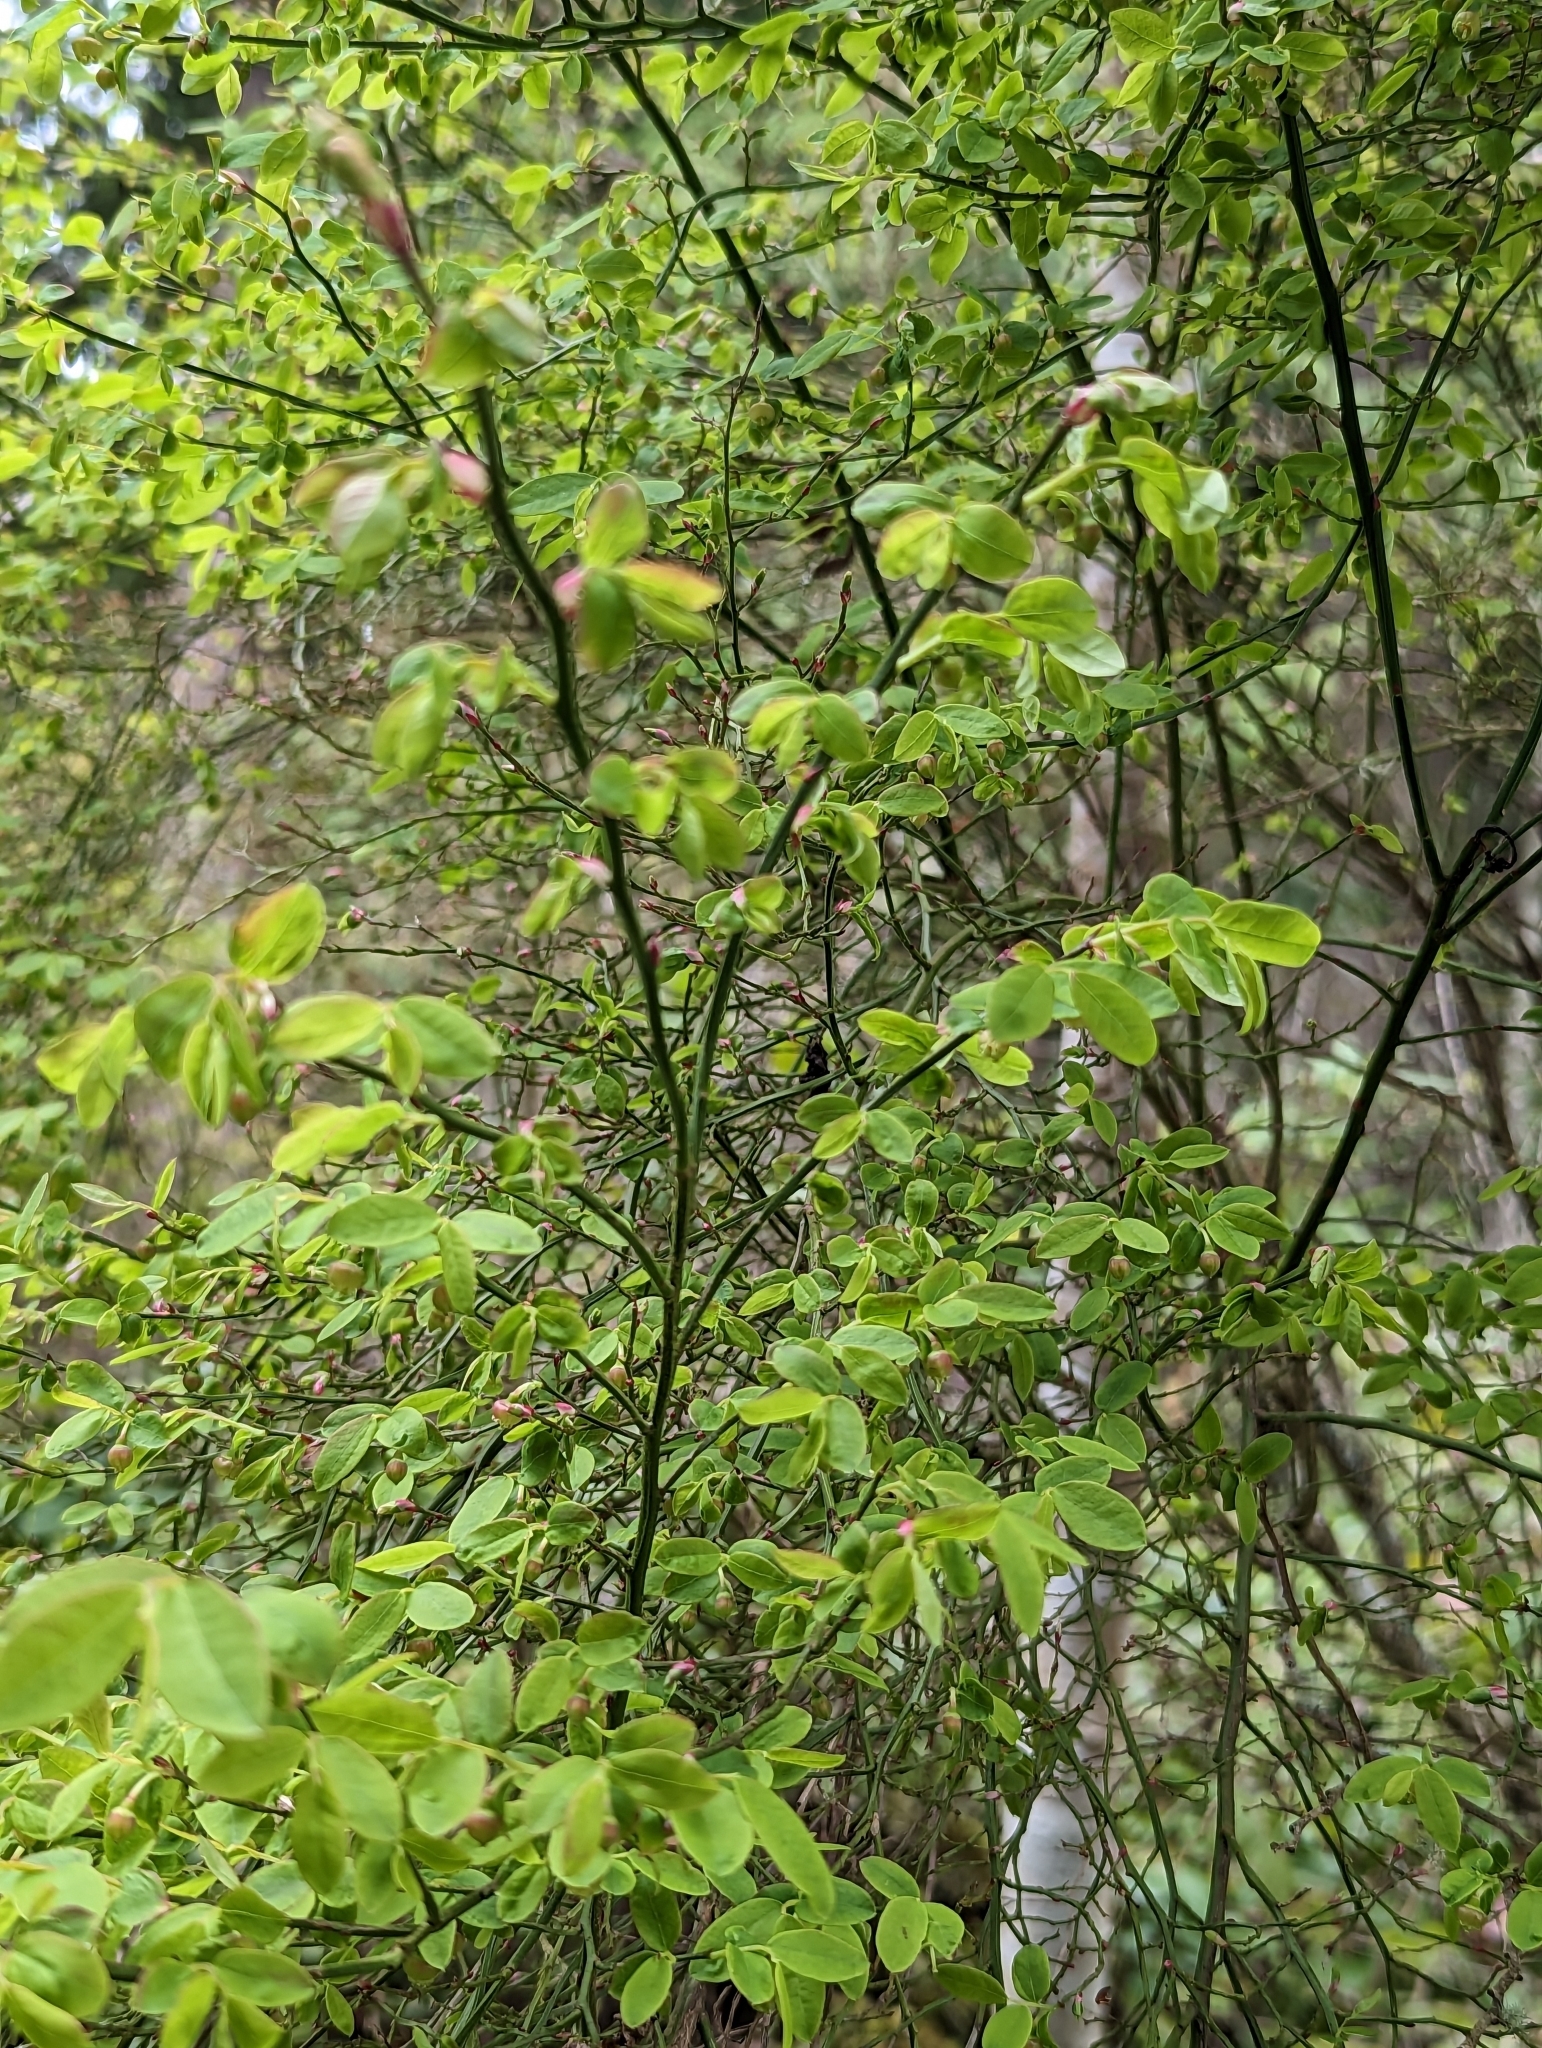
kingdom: Plantae
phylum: Tracheophyta
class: Magnoliopsida
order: Ericales
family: Ericaceae
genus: Vaccinium
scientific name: Vaccinium parvifolium
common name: Red-huckleberry
